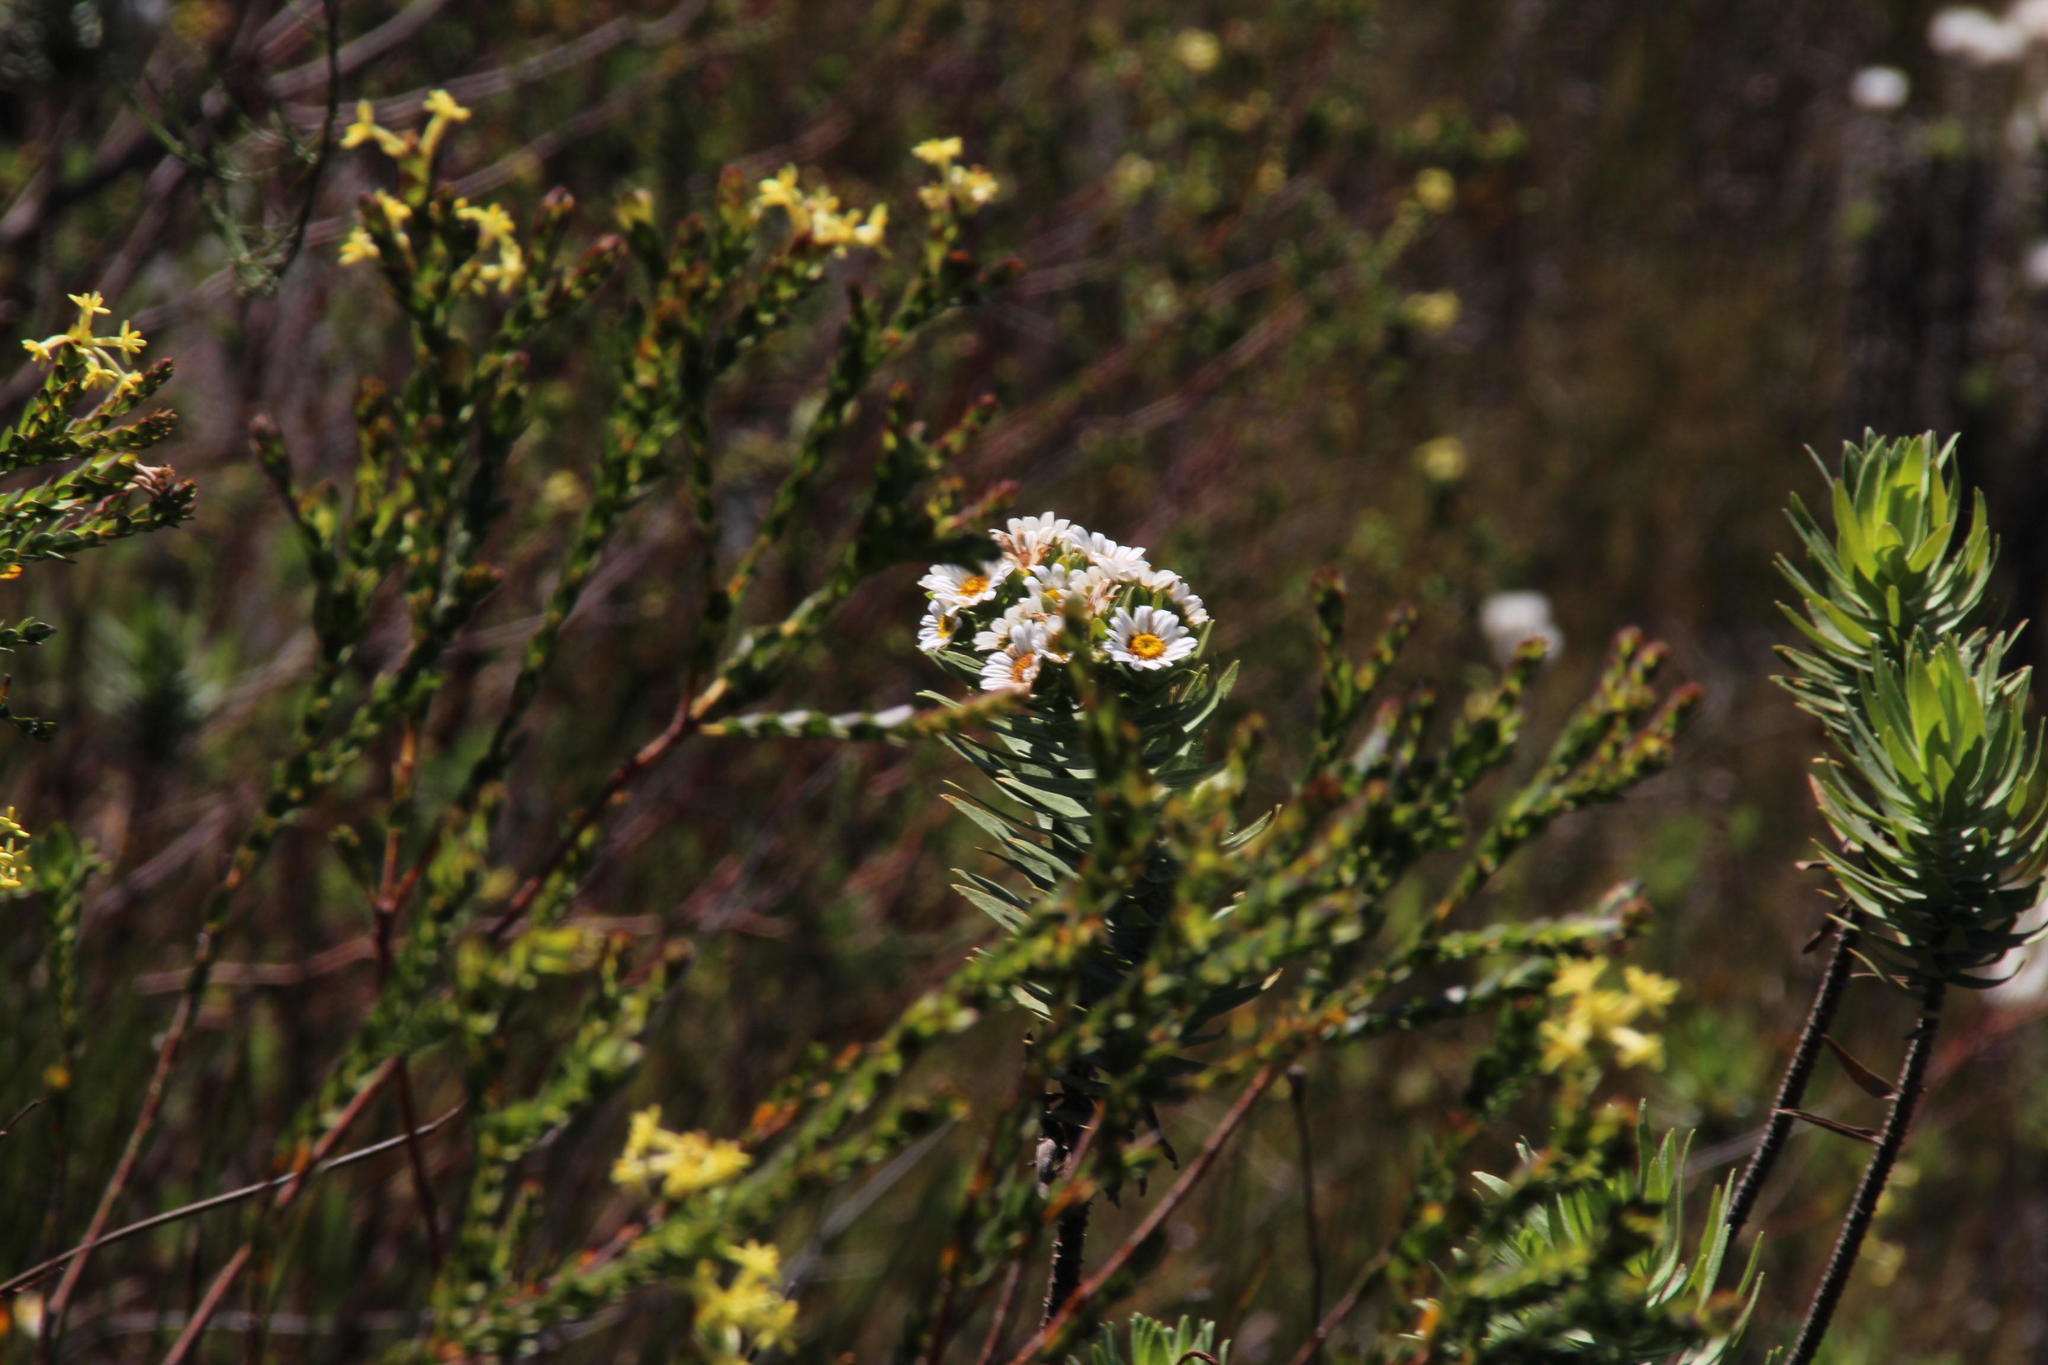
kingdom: Plantae
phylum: Tracheophyta
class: Magnoliopsida
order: Asterales
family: Asteraceae
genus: Osmitopsis
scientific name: Osmitopsis asteriscoides
